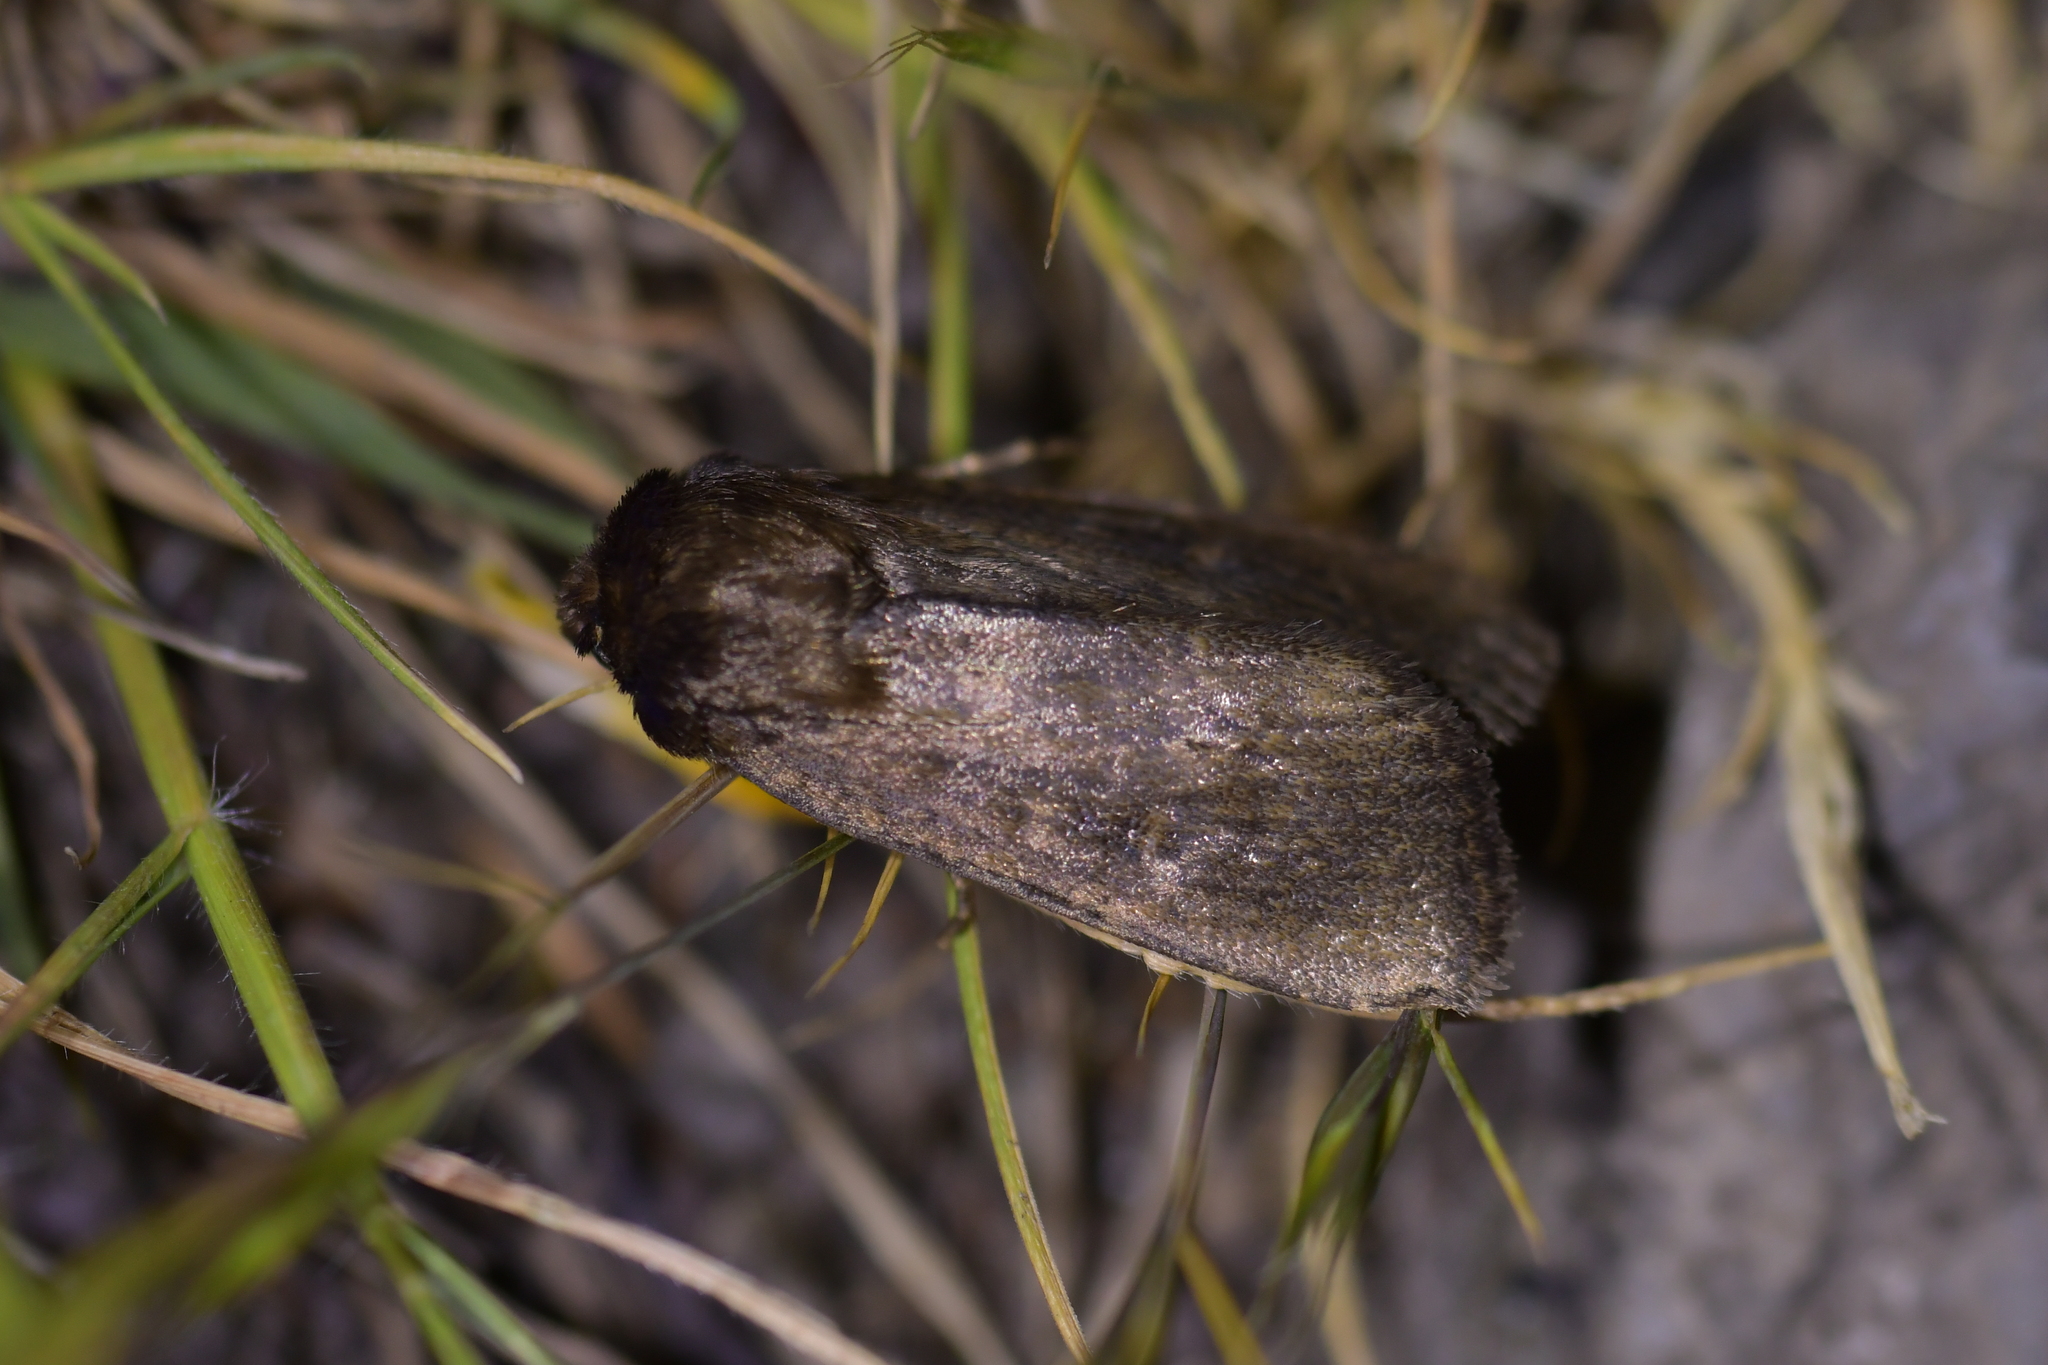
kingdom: Animalia
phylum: Arthropoda
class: Insecta
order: Lepidoptera
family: Noctuidae
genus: Bityla
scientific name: Bityla defigurata
